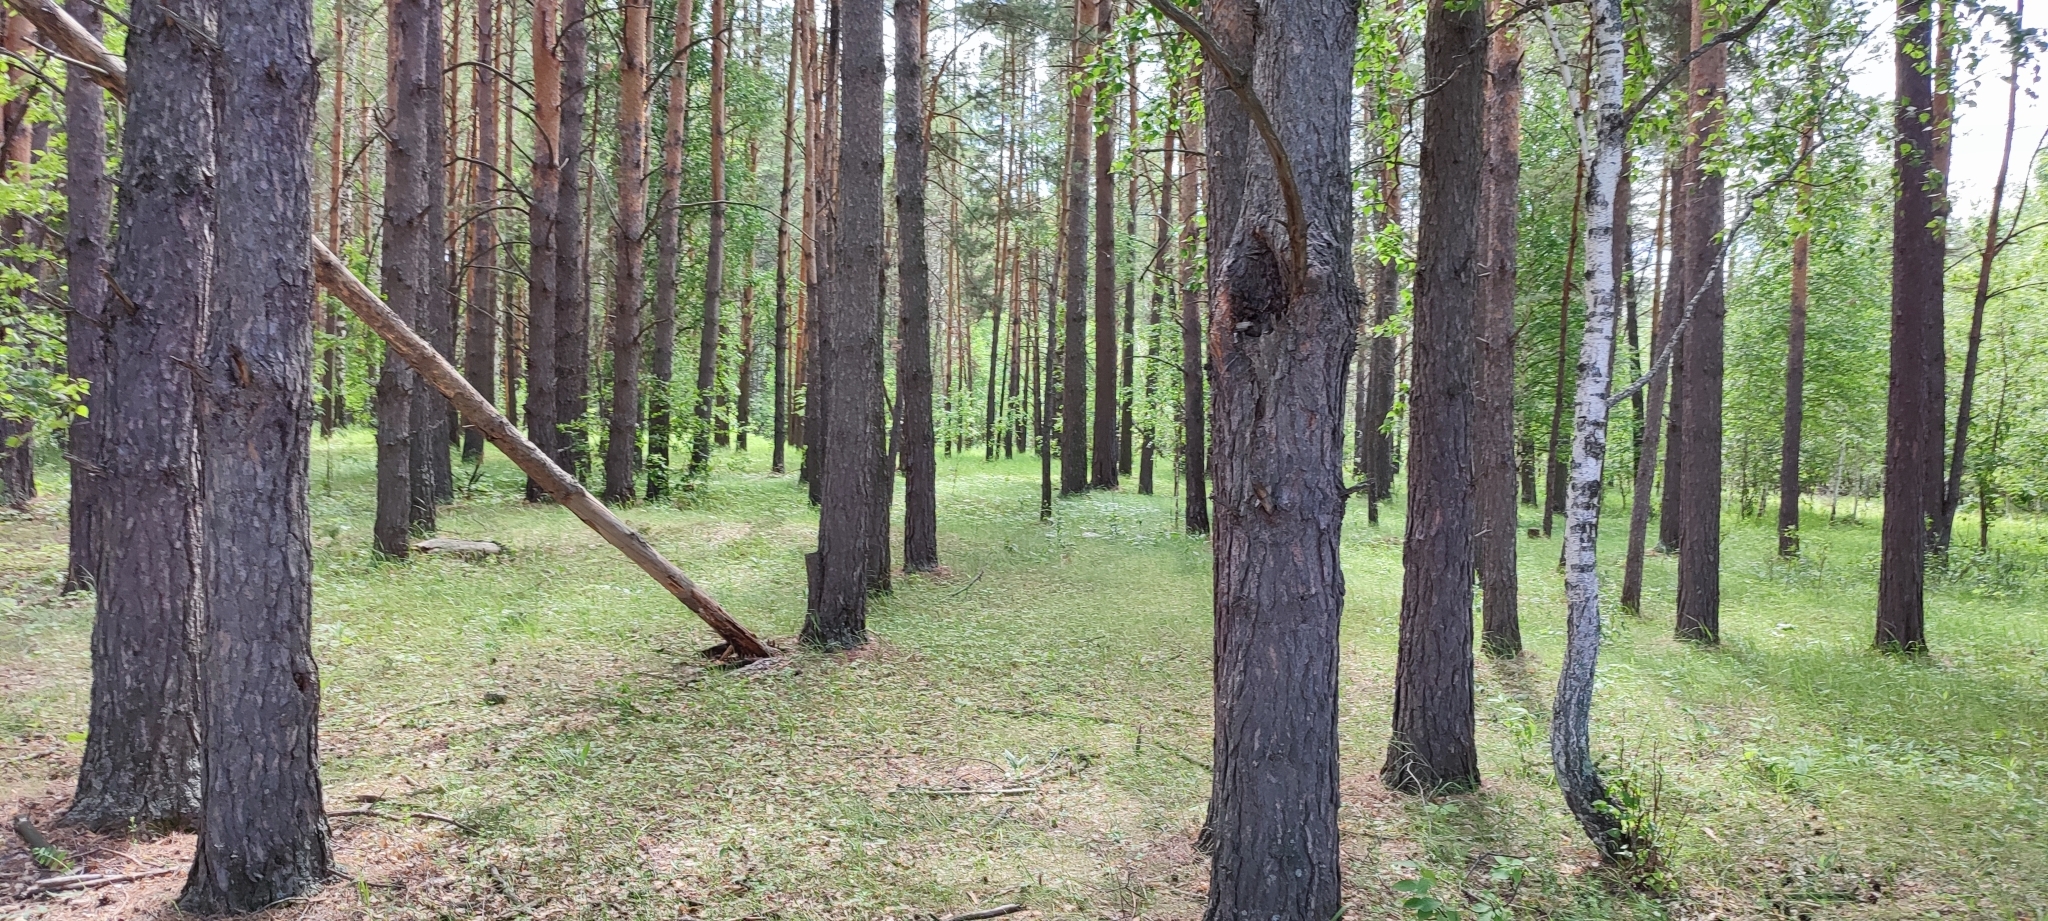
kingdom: Plantae
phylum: Tracheophyta
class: Pinopsida
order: Pinales
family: Pinaceae
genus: Pinus
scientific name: Pinus sylvestris
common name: Scots pine
